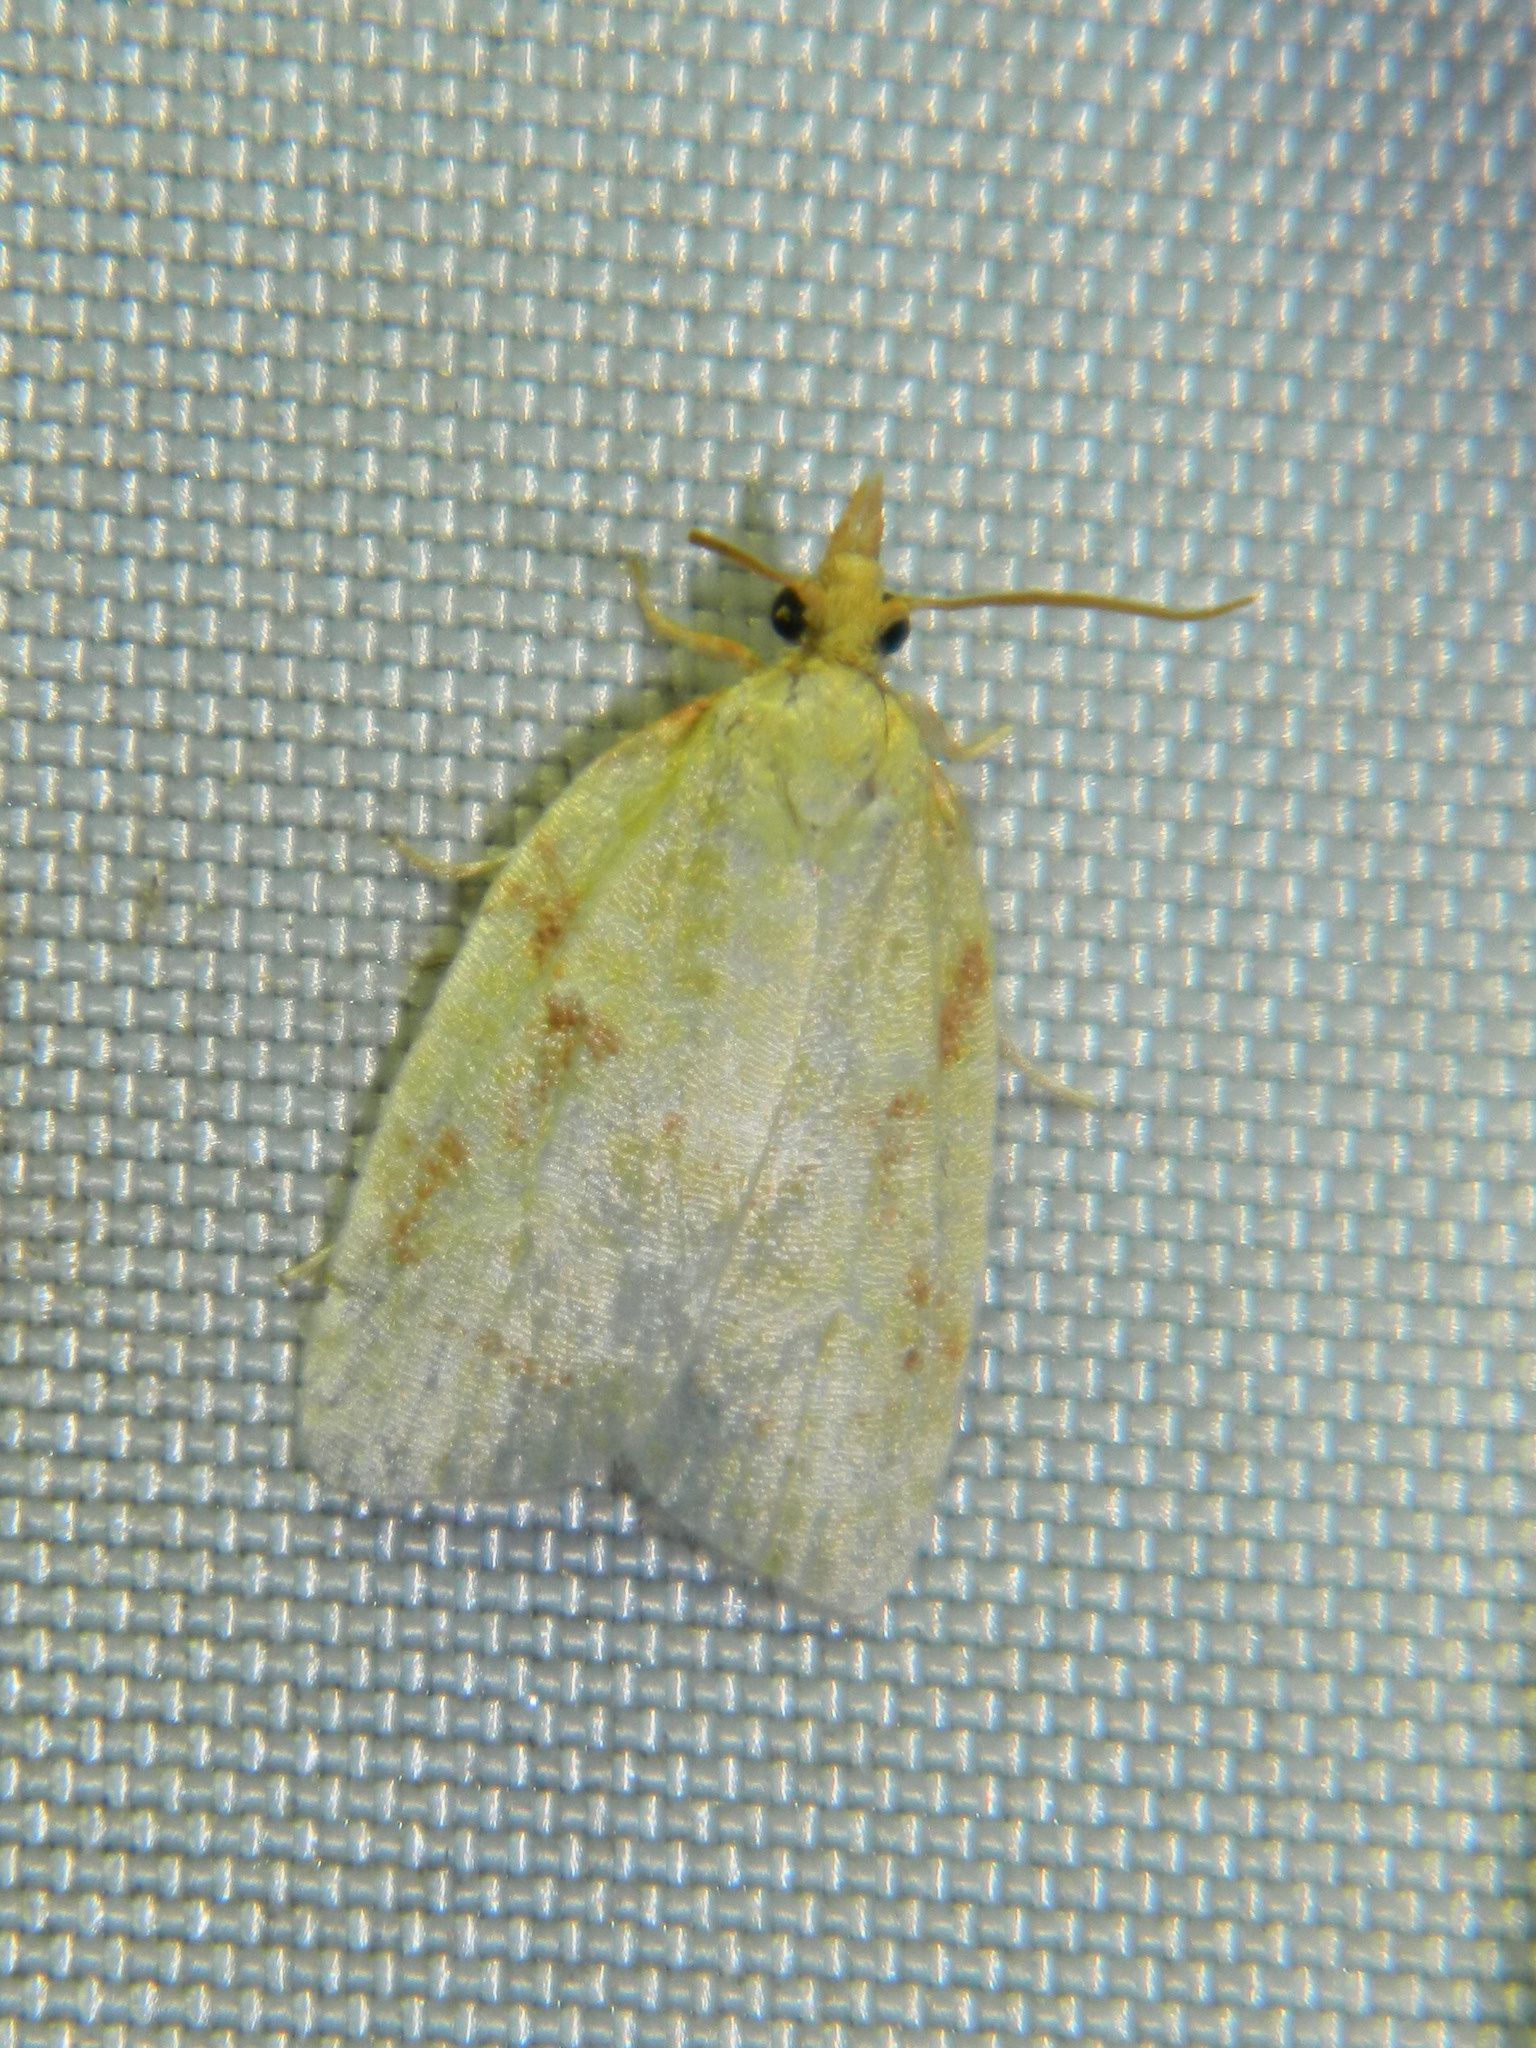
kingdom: Animalia
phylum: Arthropoda
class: Insecta
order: Lepidoptera
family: Tortricidae
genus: Cenopis
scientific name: Cenopis pettitana
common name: Maple-basswood leafroller moth
